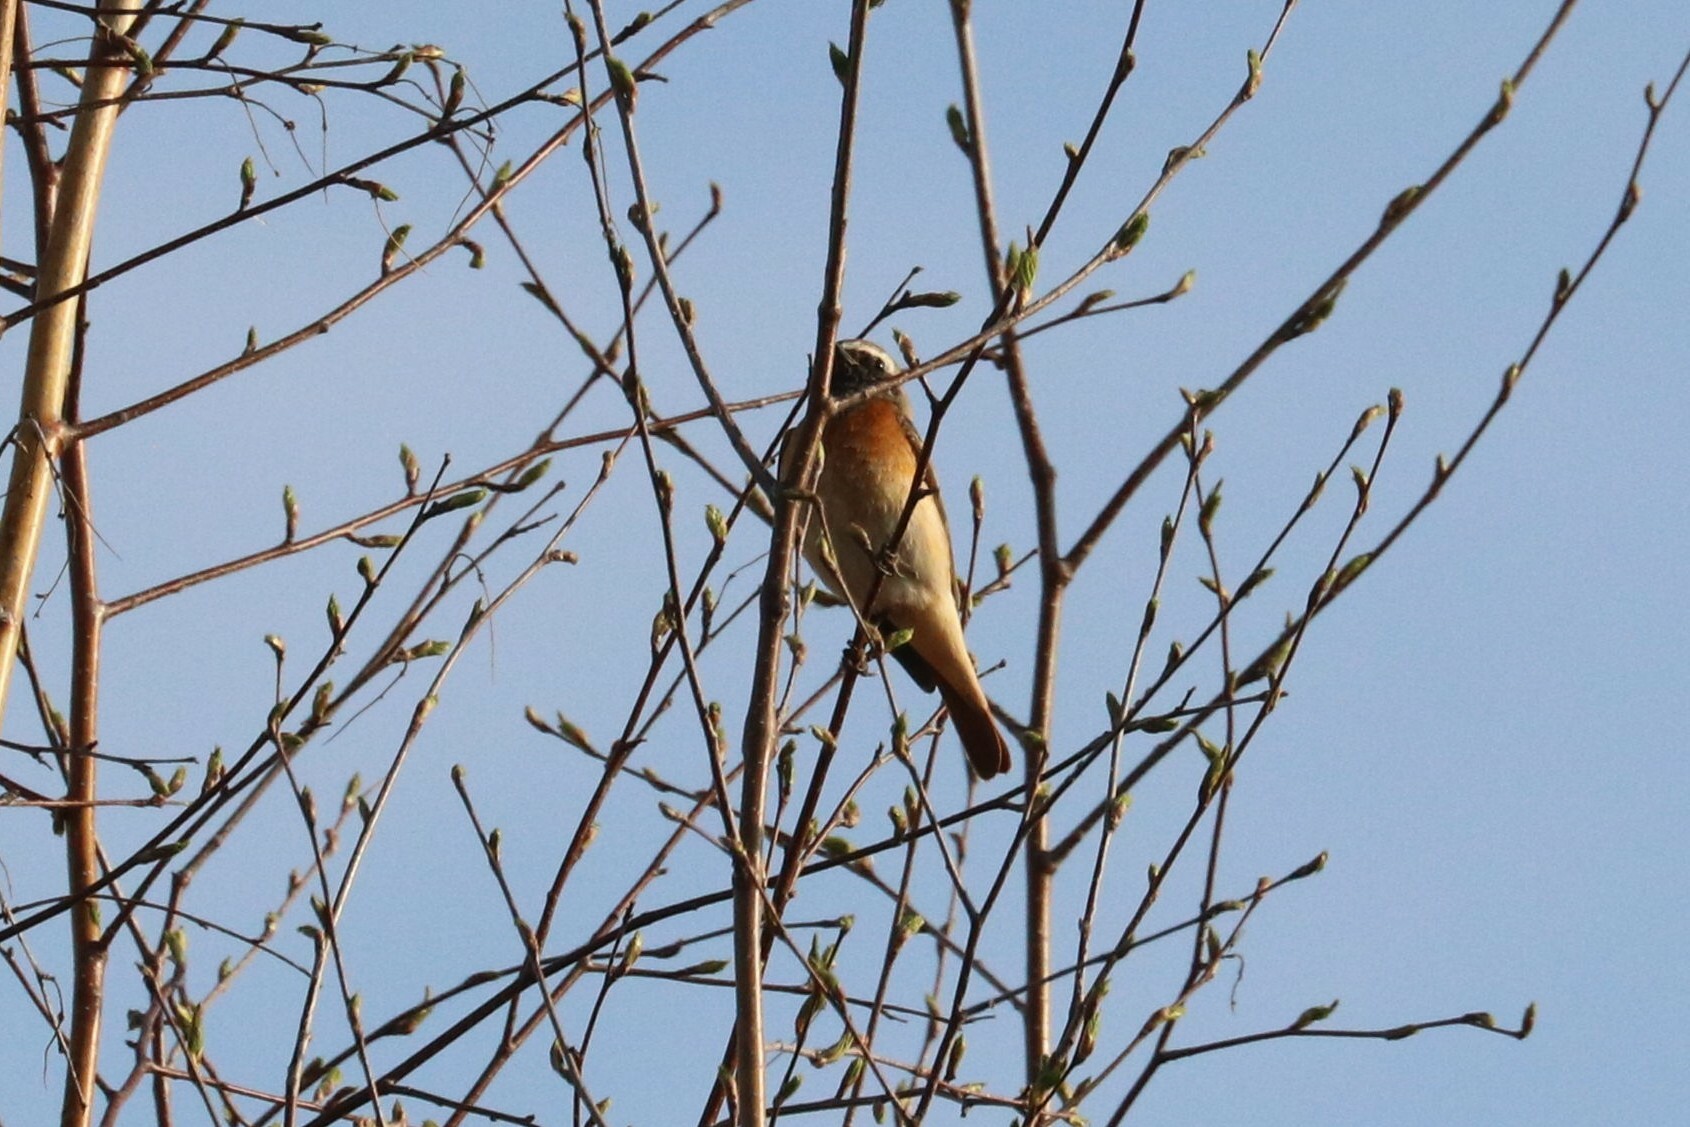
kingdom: Animalia
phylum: Chordata
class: Aves
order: Passeriformes
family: Muscicapidae
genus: Phoenicurus
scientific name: Phoenicurus phoenicurus
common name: Common redstart
